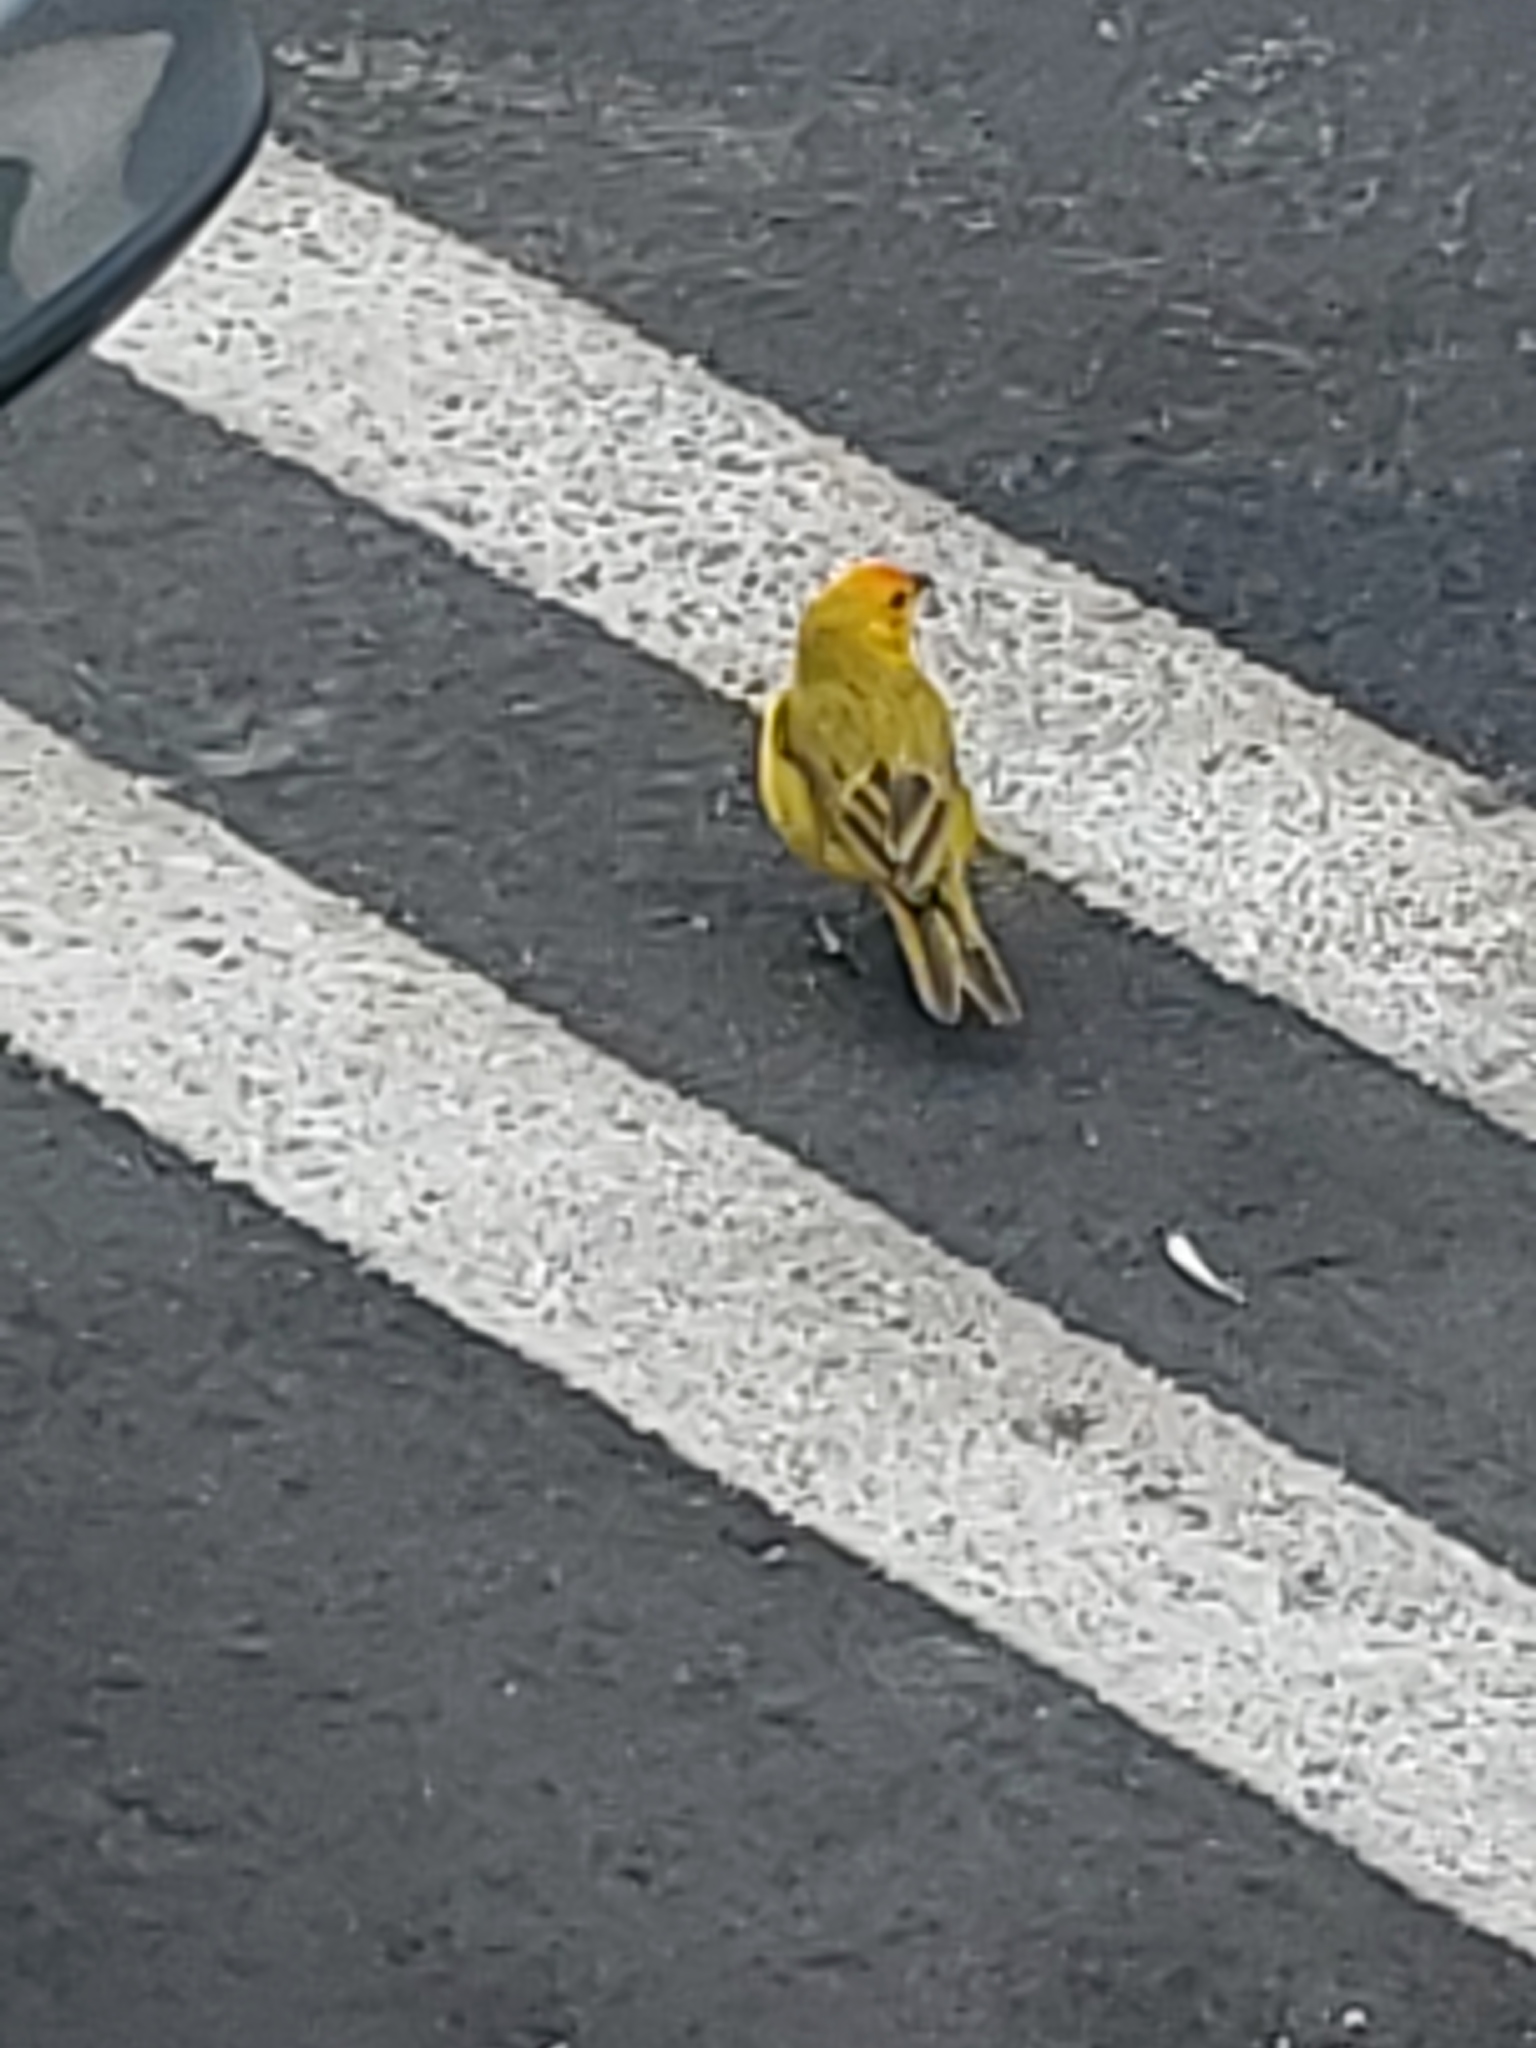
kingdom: Animalia
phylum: Chordata
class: Aves
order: Passeriformes
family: Thraupidae
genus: Sicalis
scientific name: Sicalis flaveola
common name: Saffron finch
